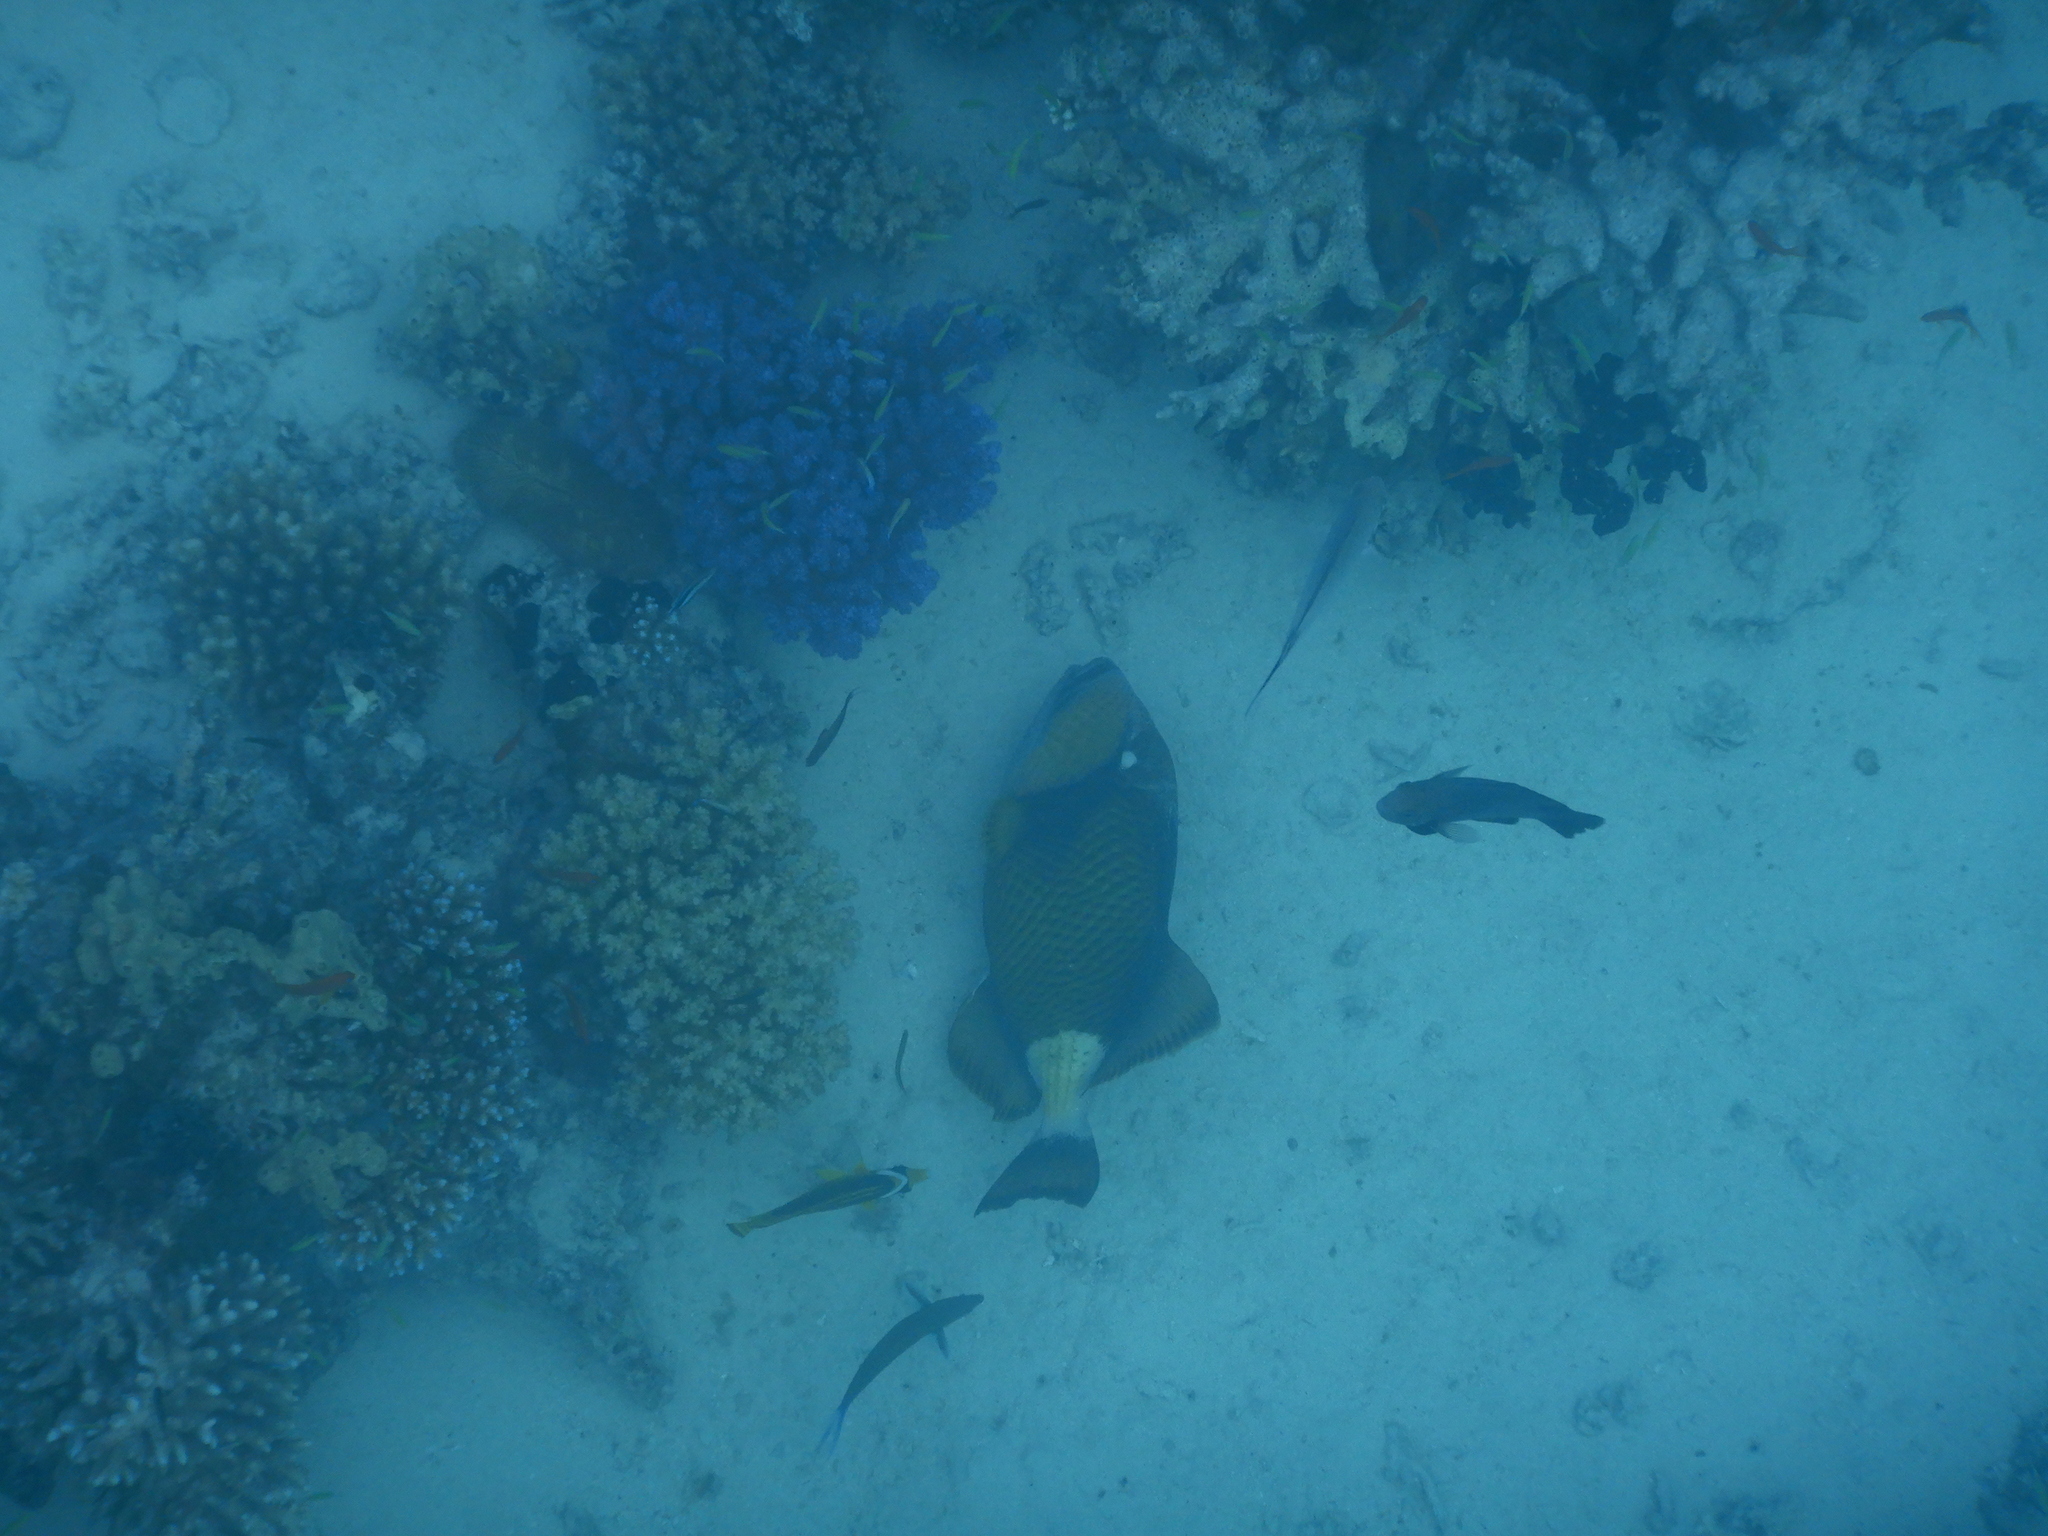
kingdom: Animalia
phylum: Chordata
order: Tetraodontiformes
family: Balistidae
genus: Balistoides
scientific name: Balistoides viridescens
